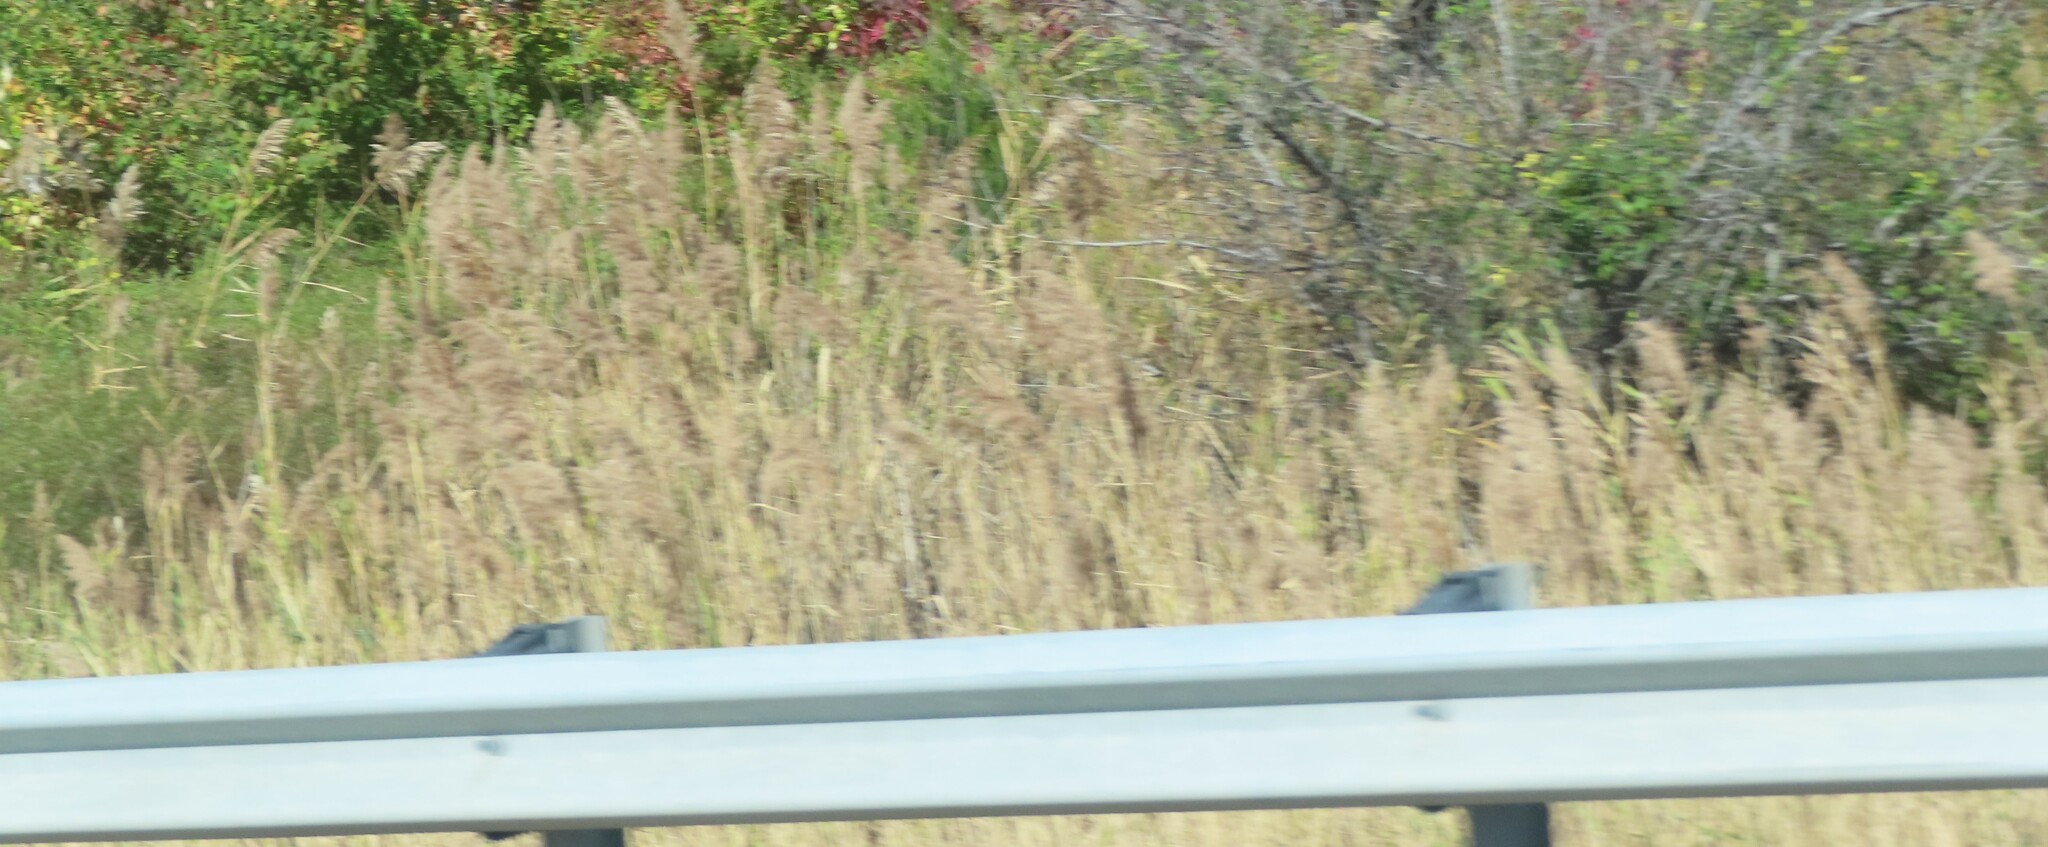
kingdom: Plantae
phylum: Tracheophyta
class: Liliopsida
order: Poales
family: Poaceae
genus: Phragmites
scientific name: Phragmites australis
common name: Common reed
